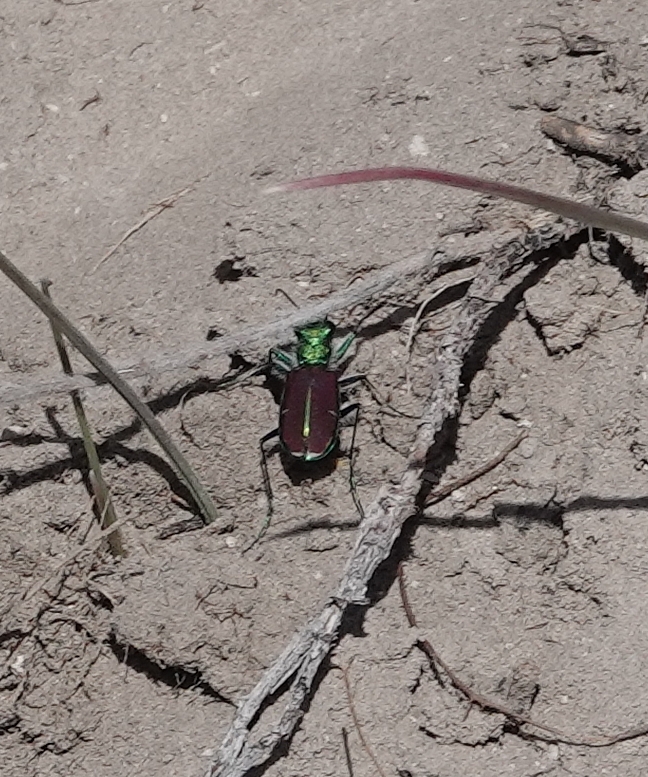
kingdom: Animalia
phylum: Arthropoda
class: Insecta
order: Coleoptera
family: Carabidae
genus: Cicindela
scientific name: Cicindela splendida
